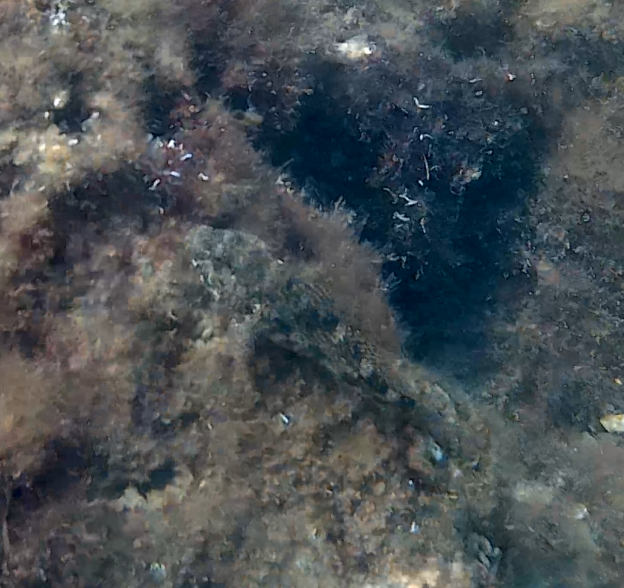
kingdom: Animalia
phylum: Chordata
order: Perciformes
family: Gobiidae
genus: Gobius
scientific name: Gobius cobitis
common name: Giant goby
